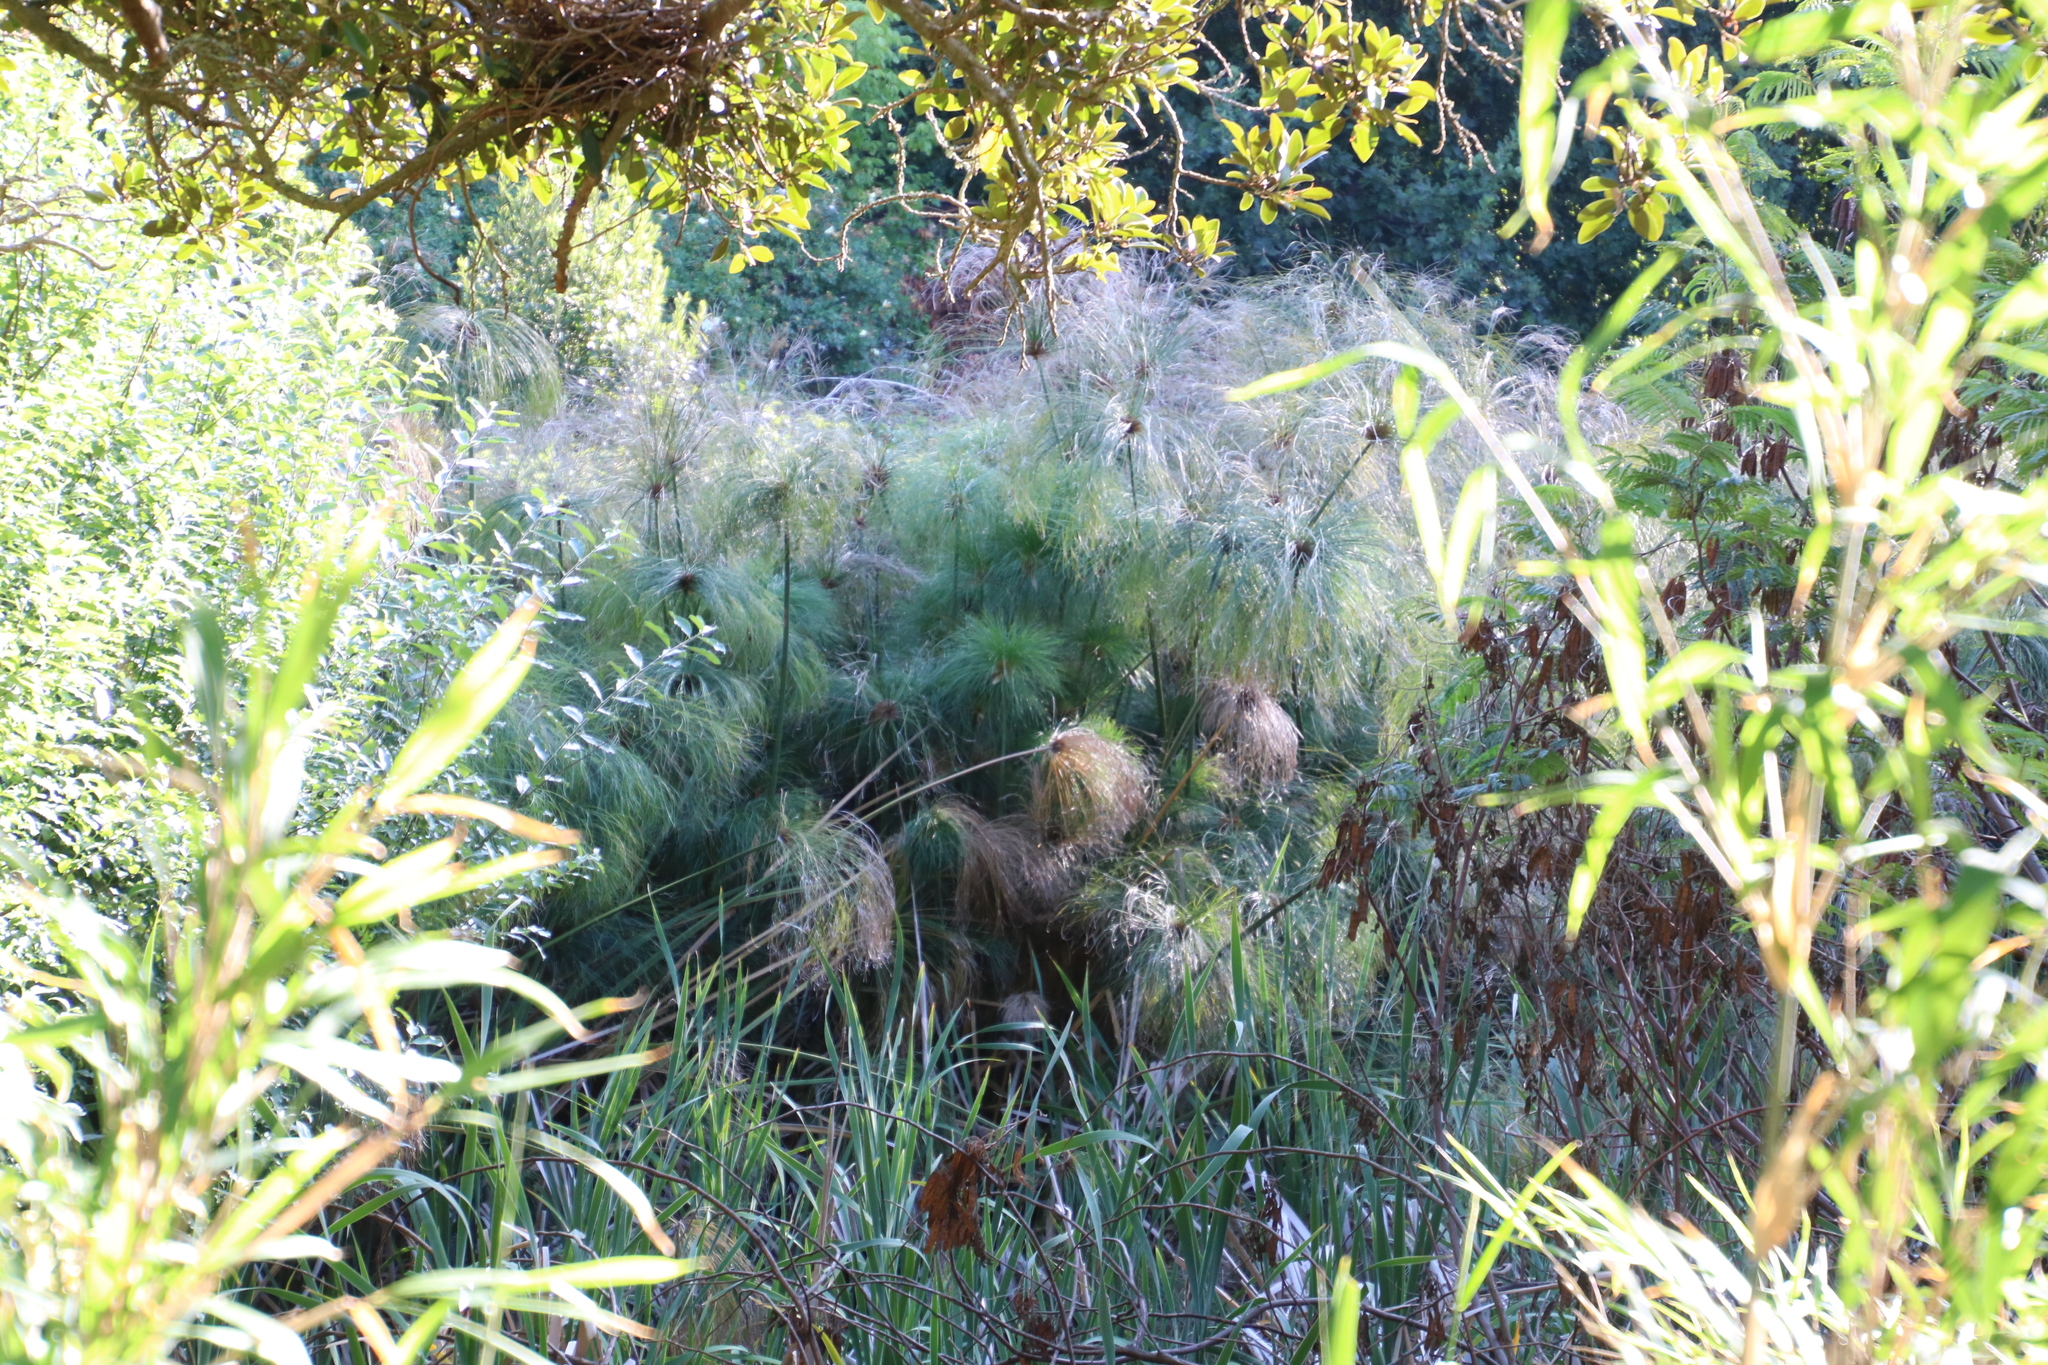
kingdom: Plantae
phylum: Tracheophyta
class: Liliopsida
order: Poales
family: Cyperaceae
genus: Cyperus
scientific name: Cyperus papyrus
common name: Papyrus
